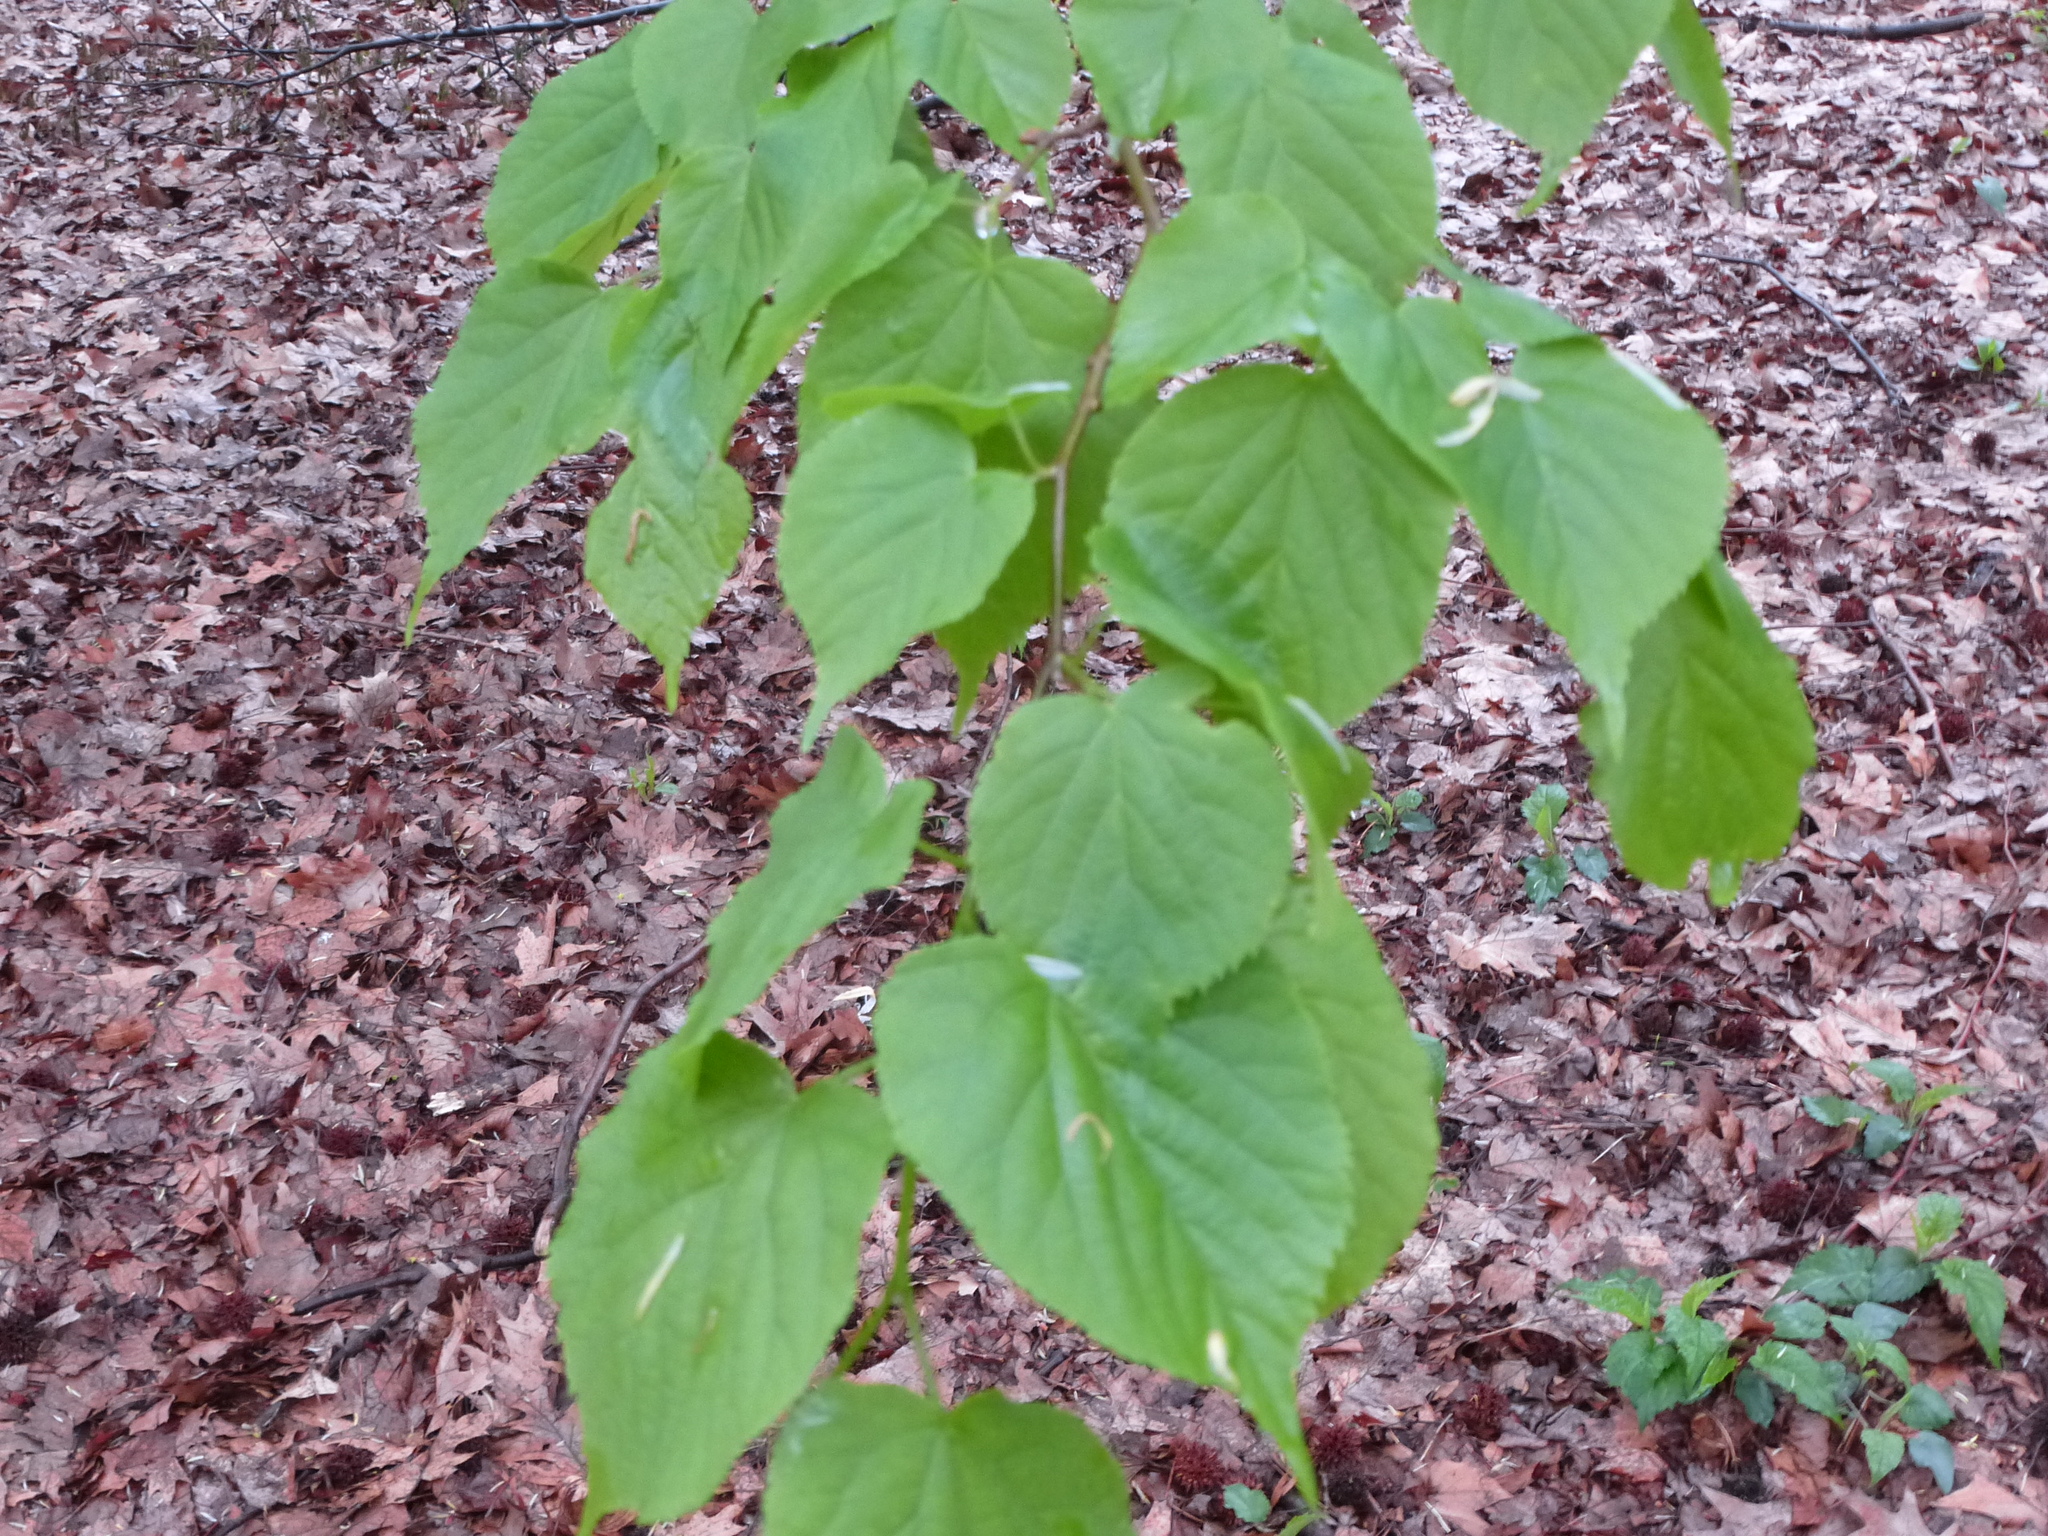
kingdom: Plantae
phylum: Tracheophyta
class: Magnoliopsida
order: Malvales
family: Malvaceae
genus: Tilia
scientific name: Tilia americana
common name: Basswood
